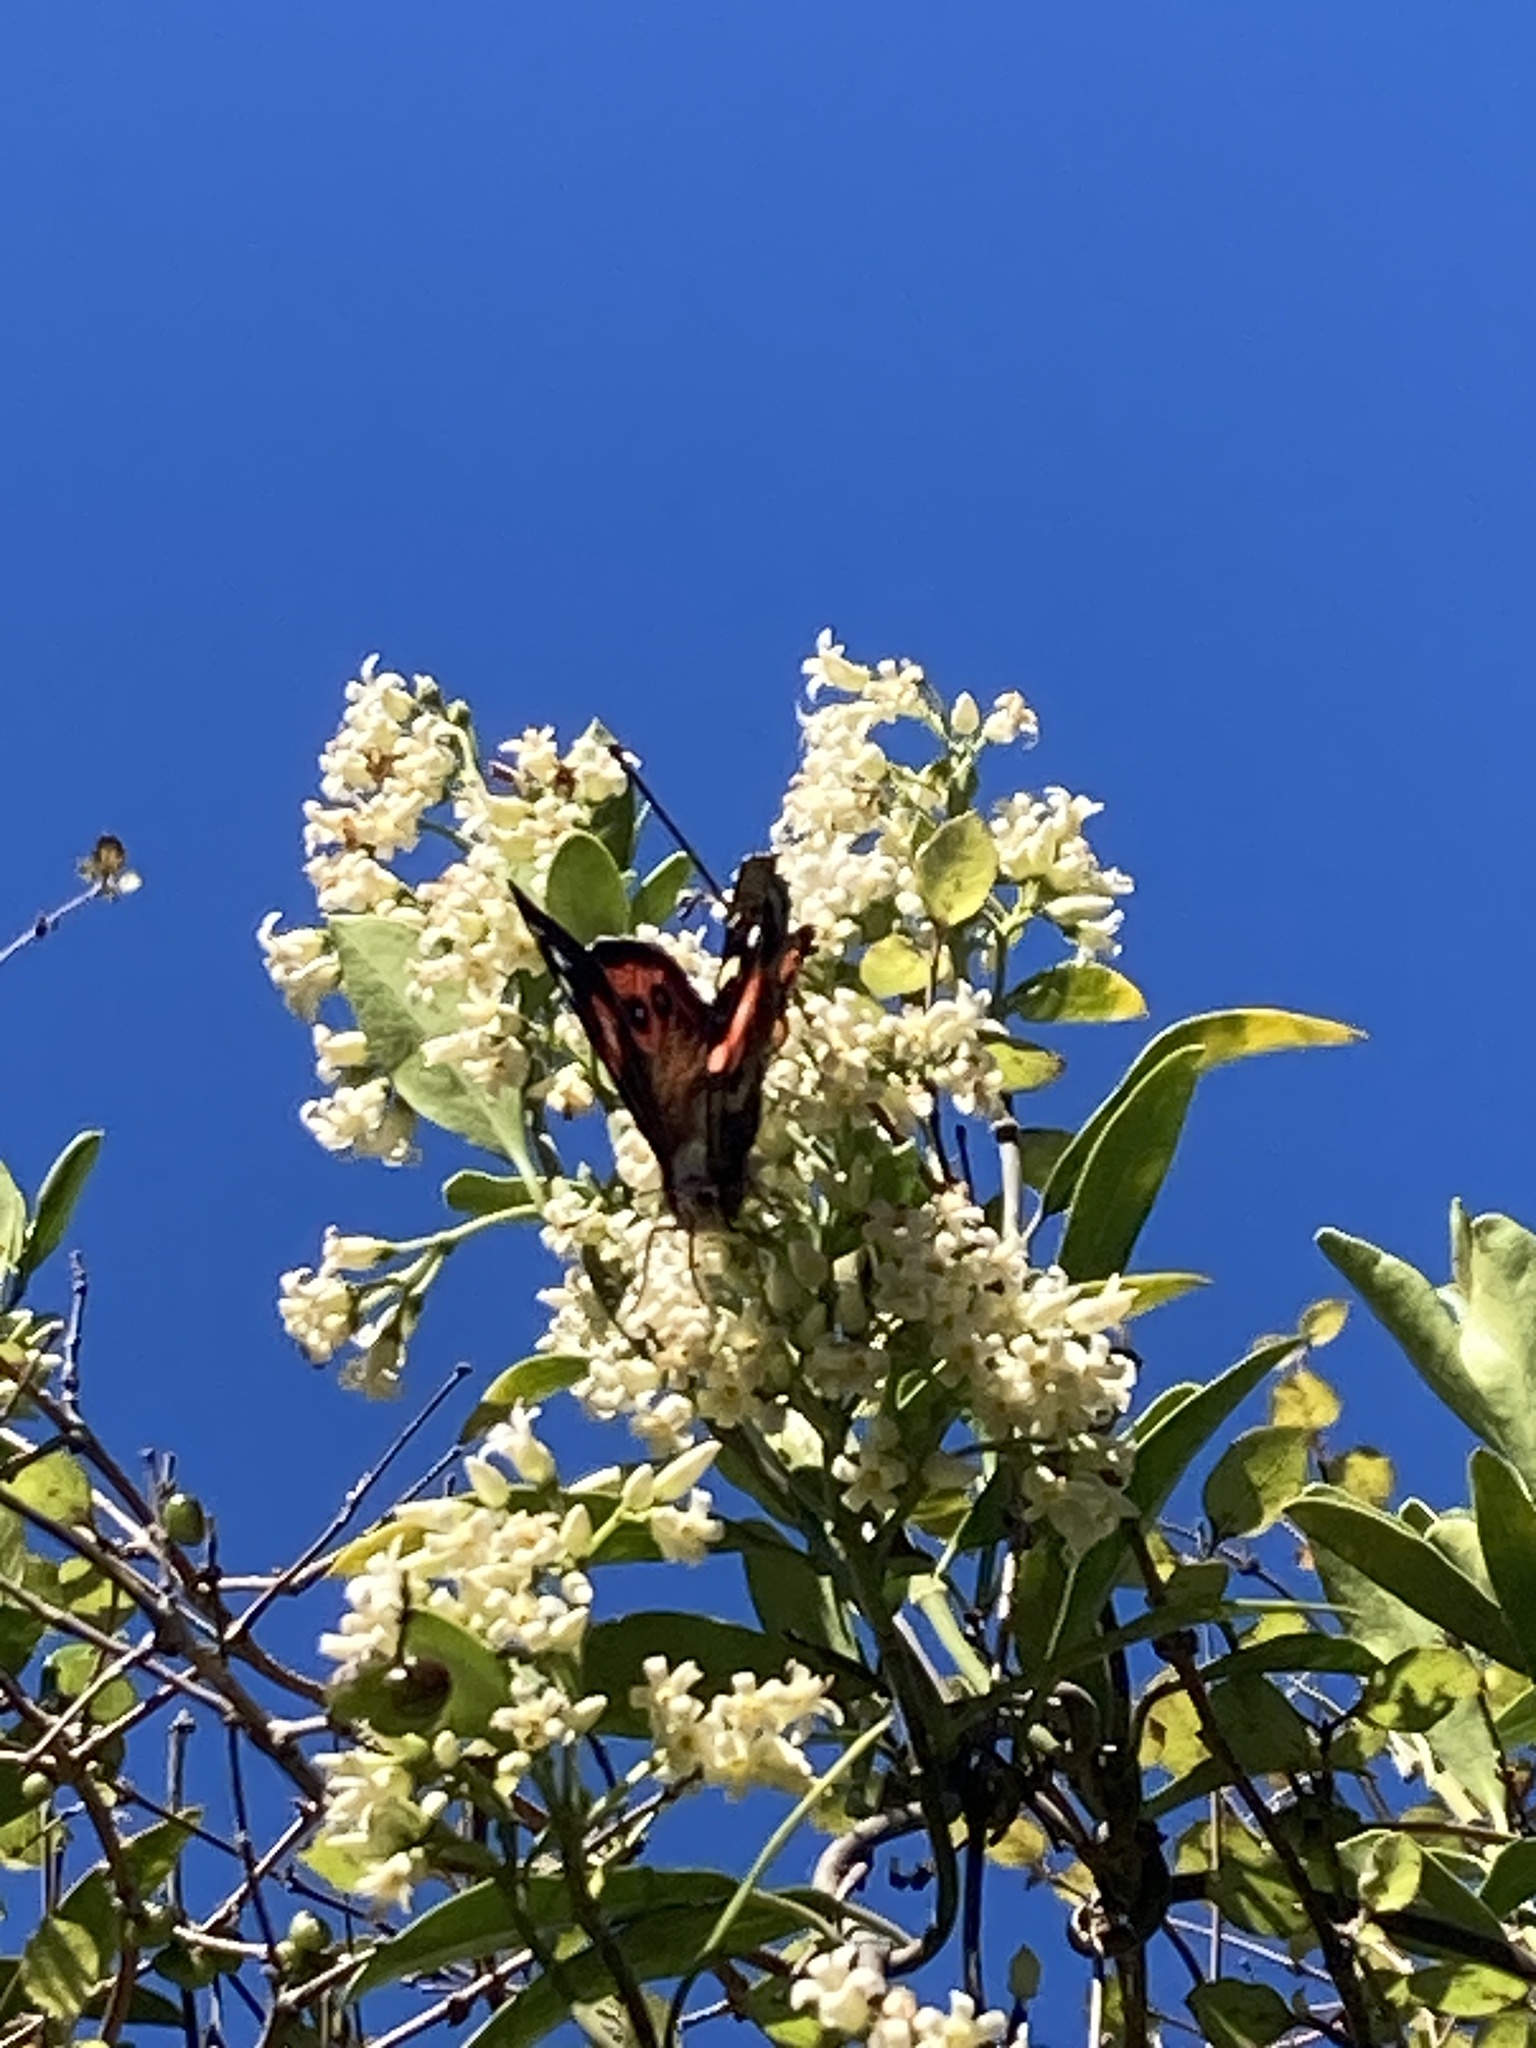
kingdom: Animalia
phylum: Arthropoda
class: Insecta
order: Lepidoptera
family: Nymphalidae
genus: Vanessa
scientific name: Vanessa gonerilla
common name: New zealand red admiral
